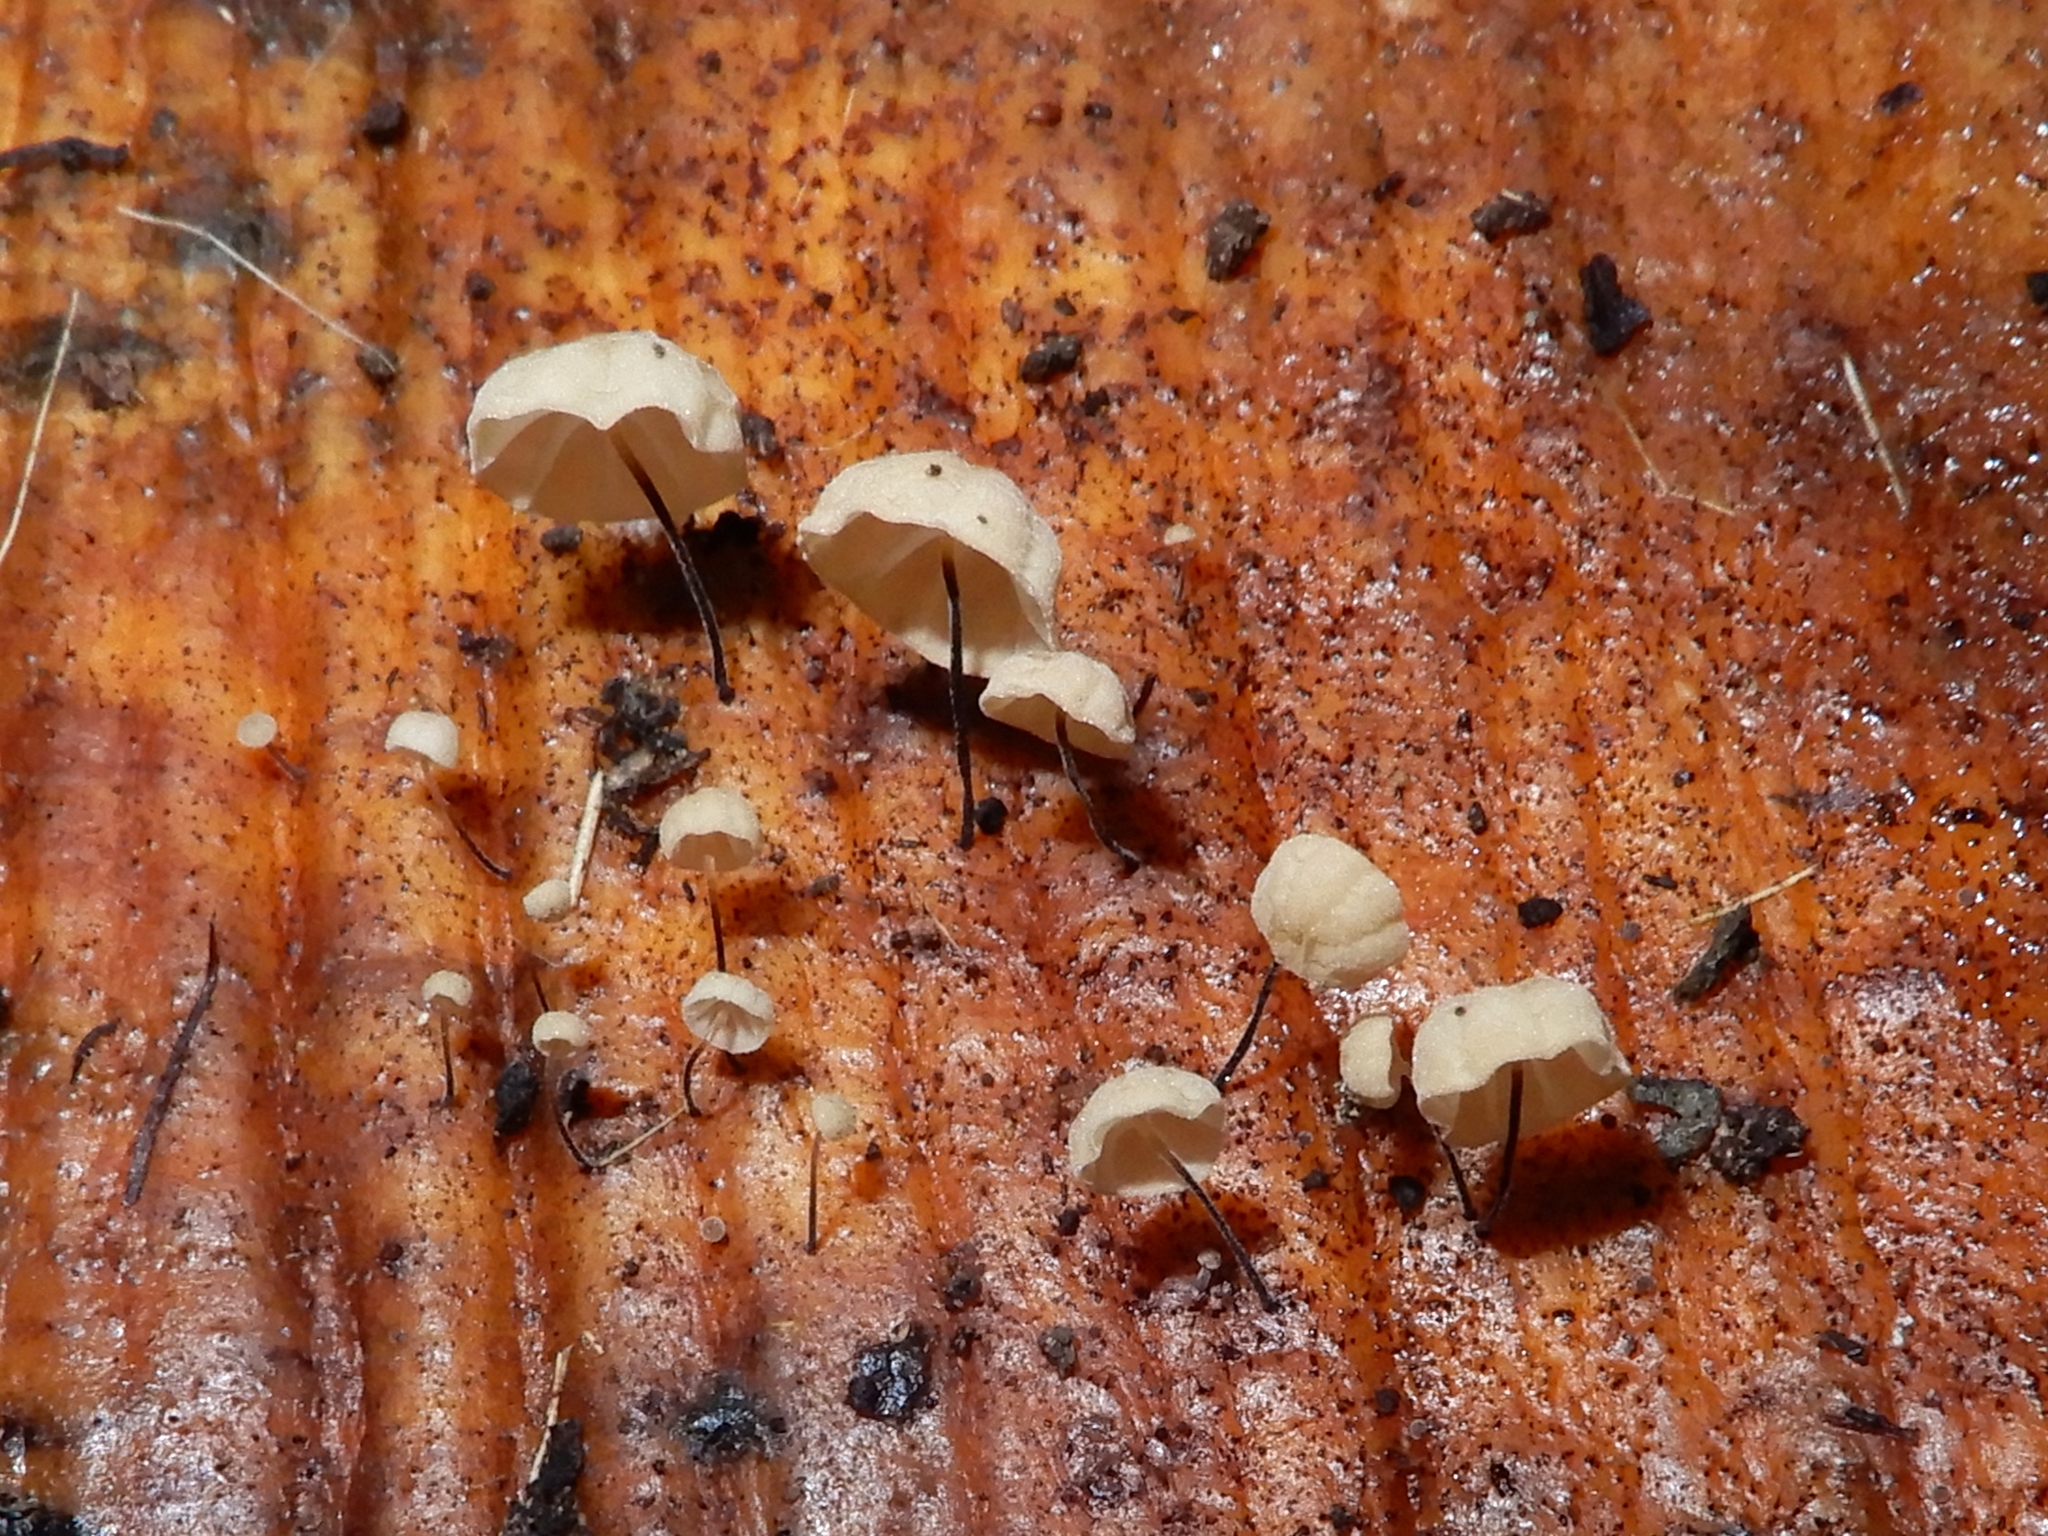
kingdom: Fungi
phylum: Basidiomycota
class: Agaricomycetes
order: Agaricales
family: Physalacriaceae
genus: Cryptomarasmius
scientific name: Cryptomarasmius rhopalostylidis
